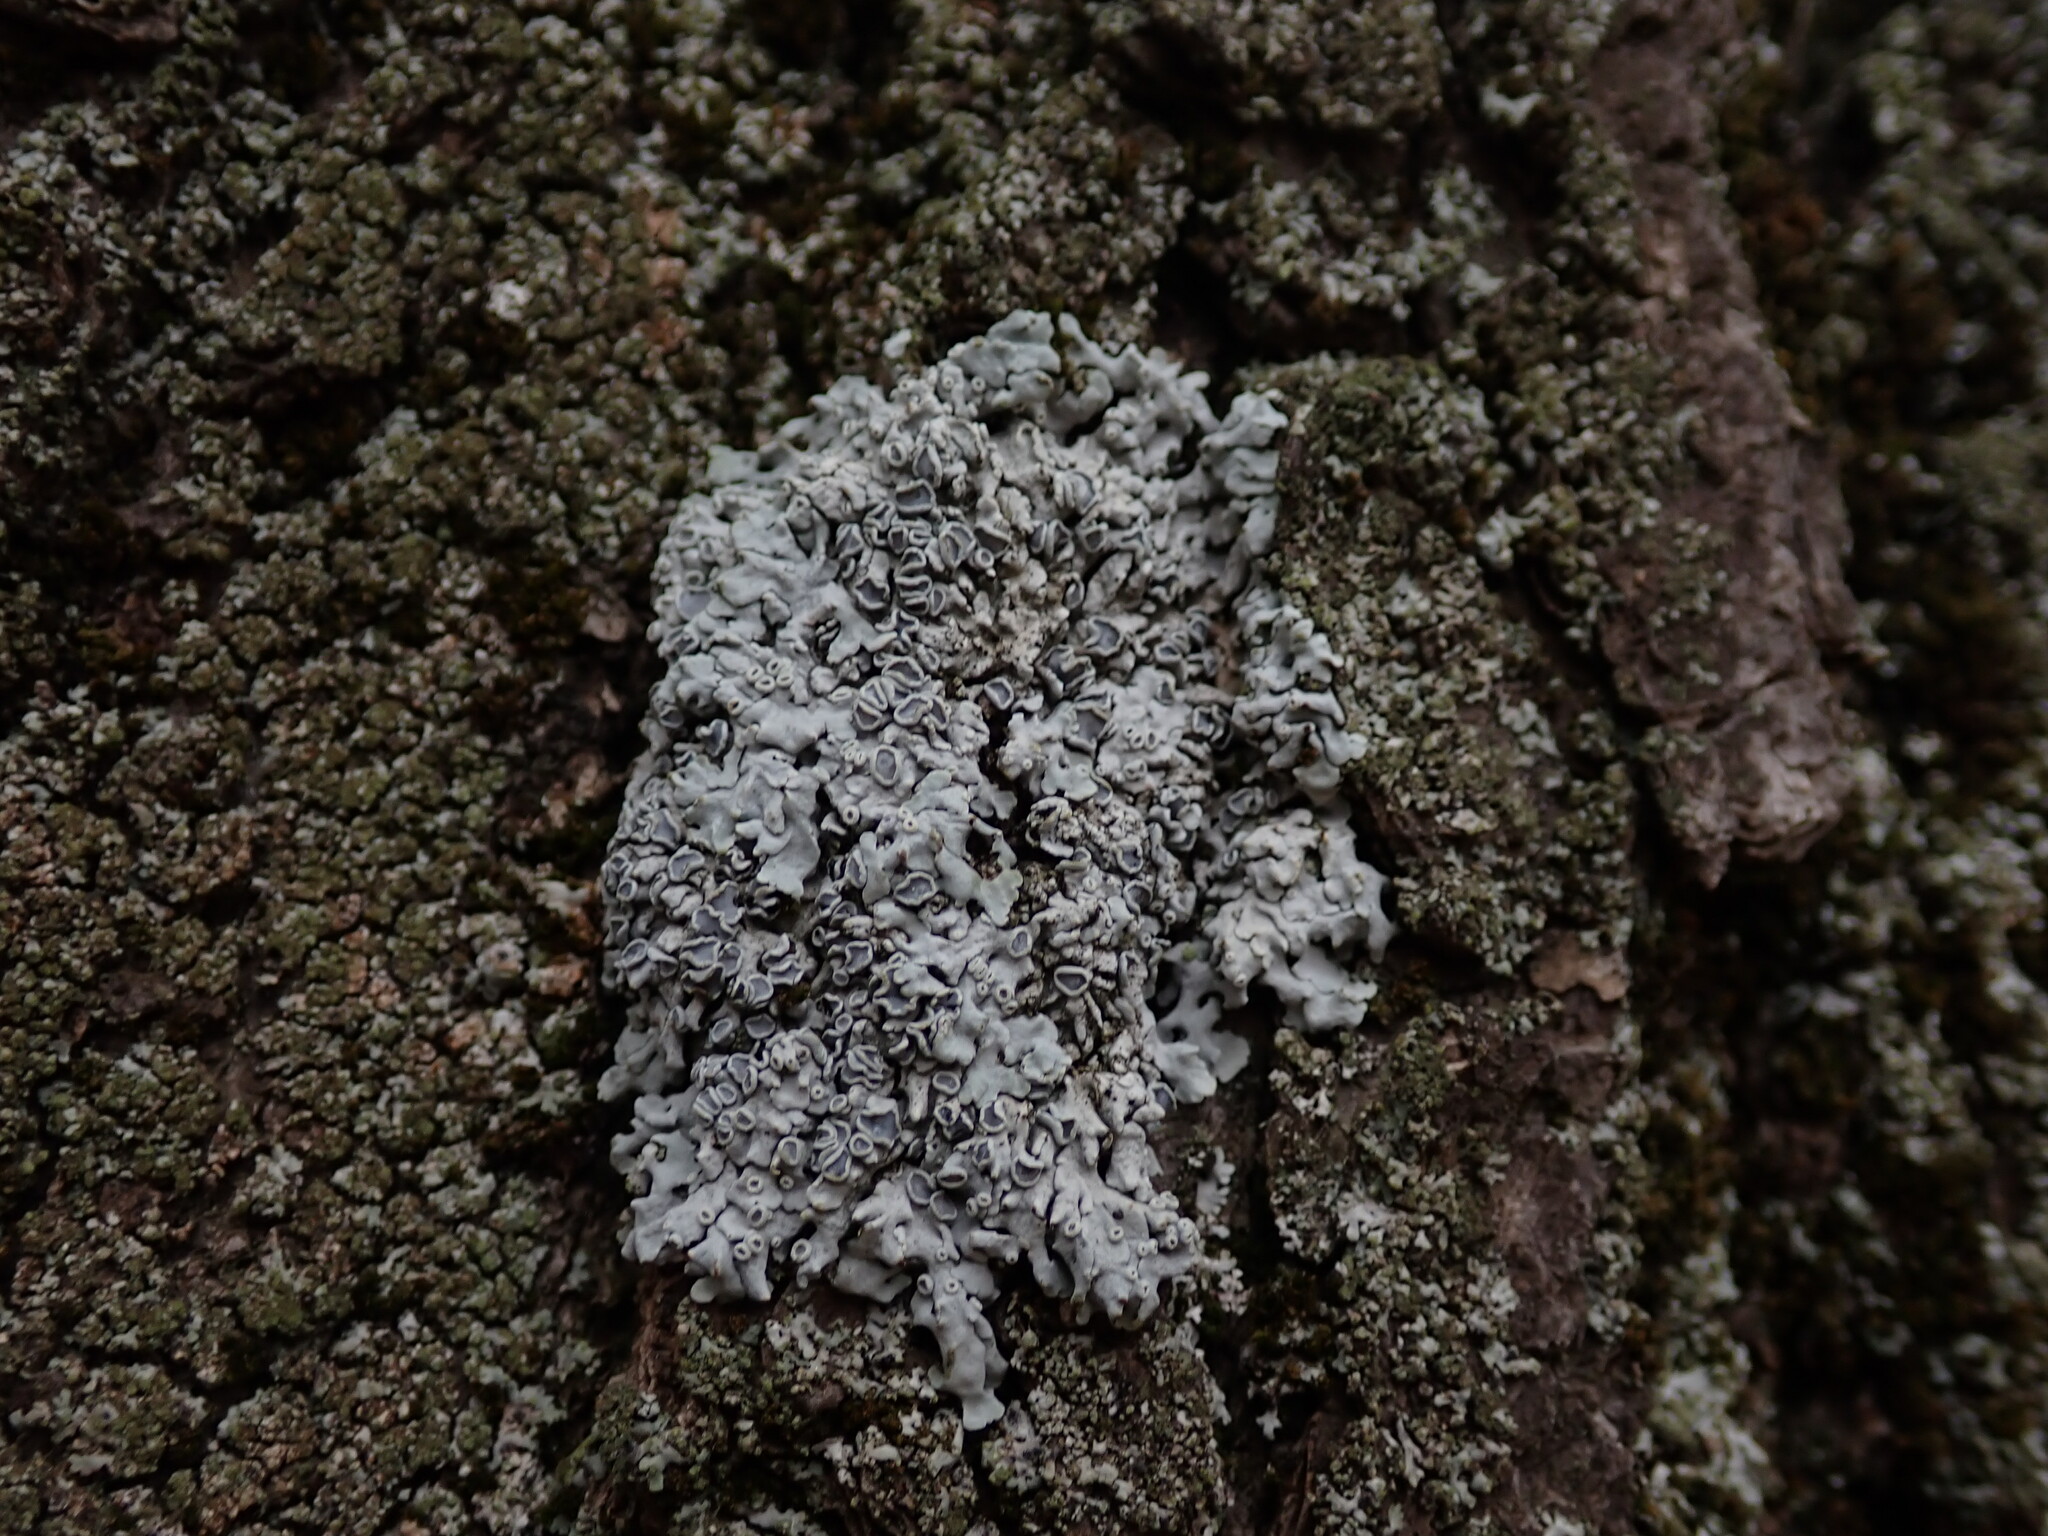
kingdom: Fungi
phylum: Ascomycota
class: Lecanoromycetes
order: Caliciales
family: Physciaceae
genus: Physconia
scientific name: Physconia distorta
